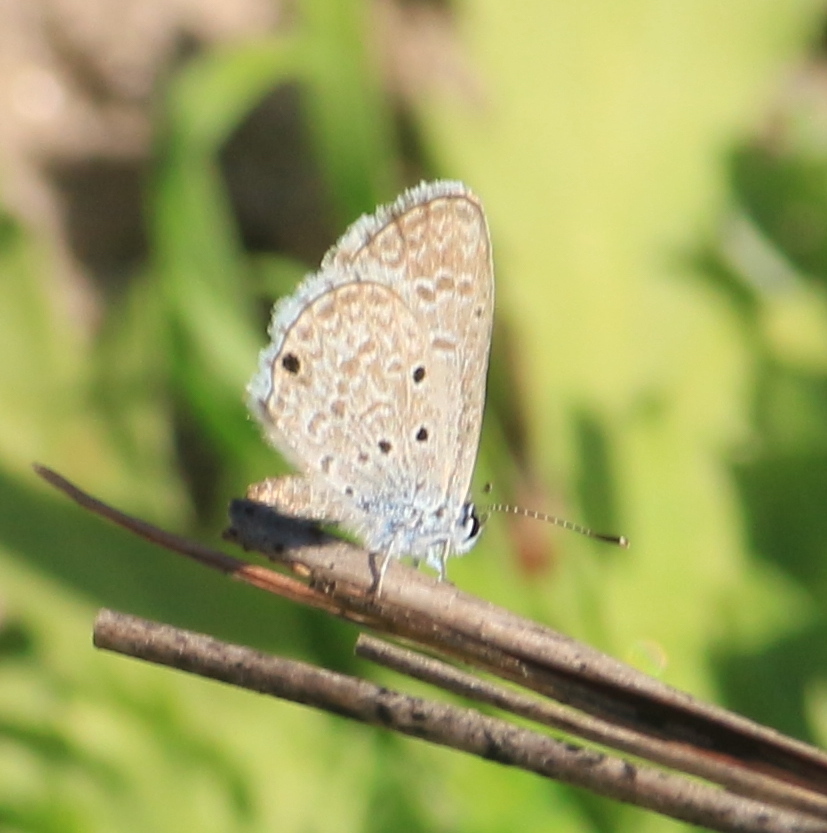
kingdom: Animalia
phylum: Arthropoda
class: Insecta
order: Lepidoptera
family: Lycaenidae
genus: Hemiargus
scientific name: Hemiargus hanno
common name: Common blue
